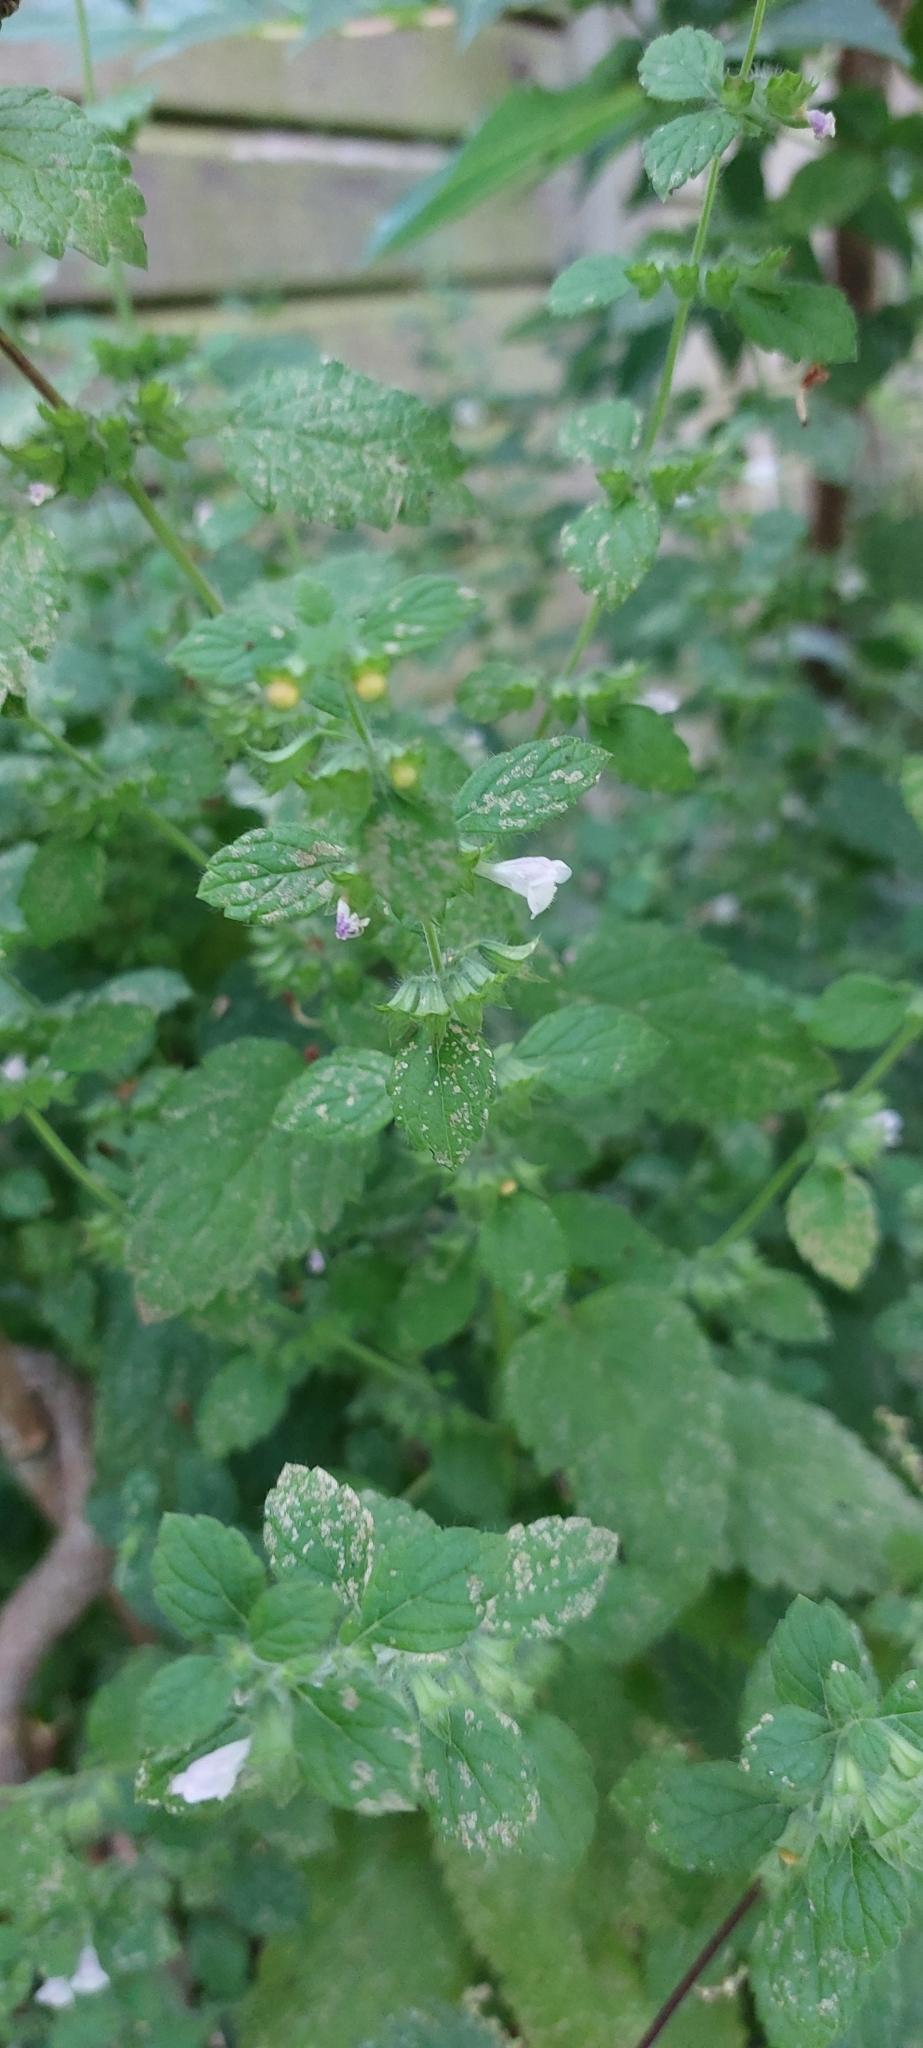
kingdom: Plantae
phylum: Tracheophyta
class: Magnoliopsida
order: Lamiales
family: Lamiaceae
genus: Melissa
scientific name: Melissa officinalis
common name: Balm
